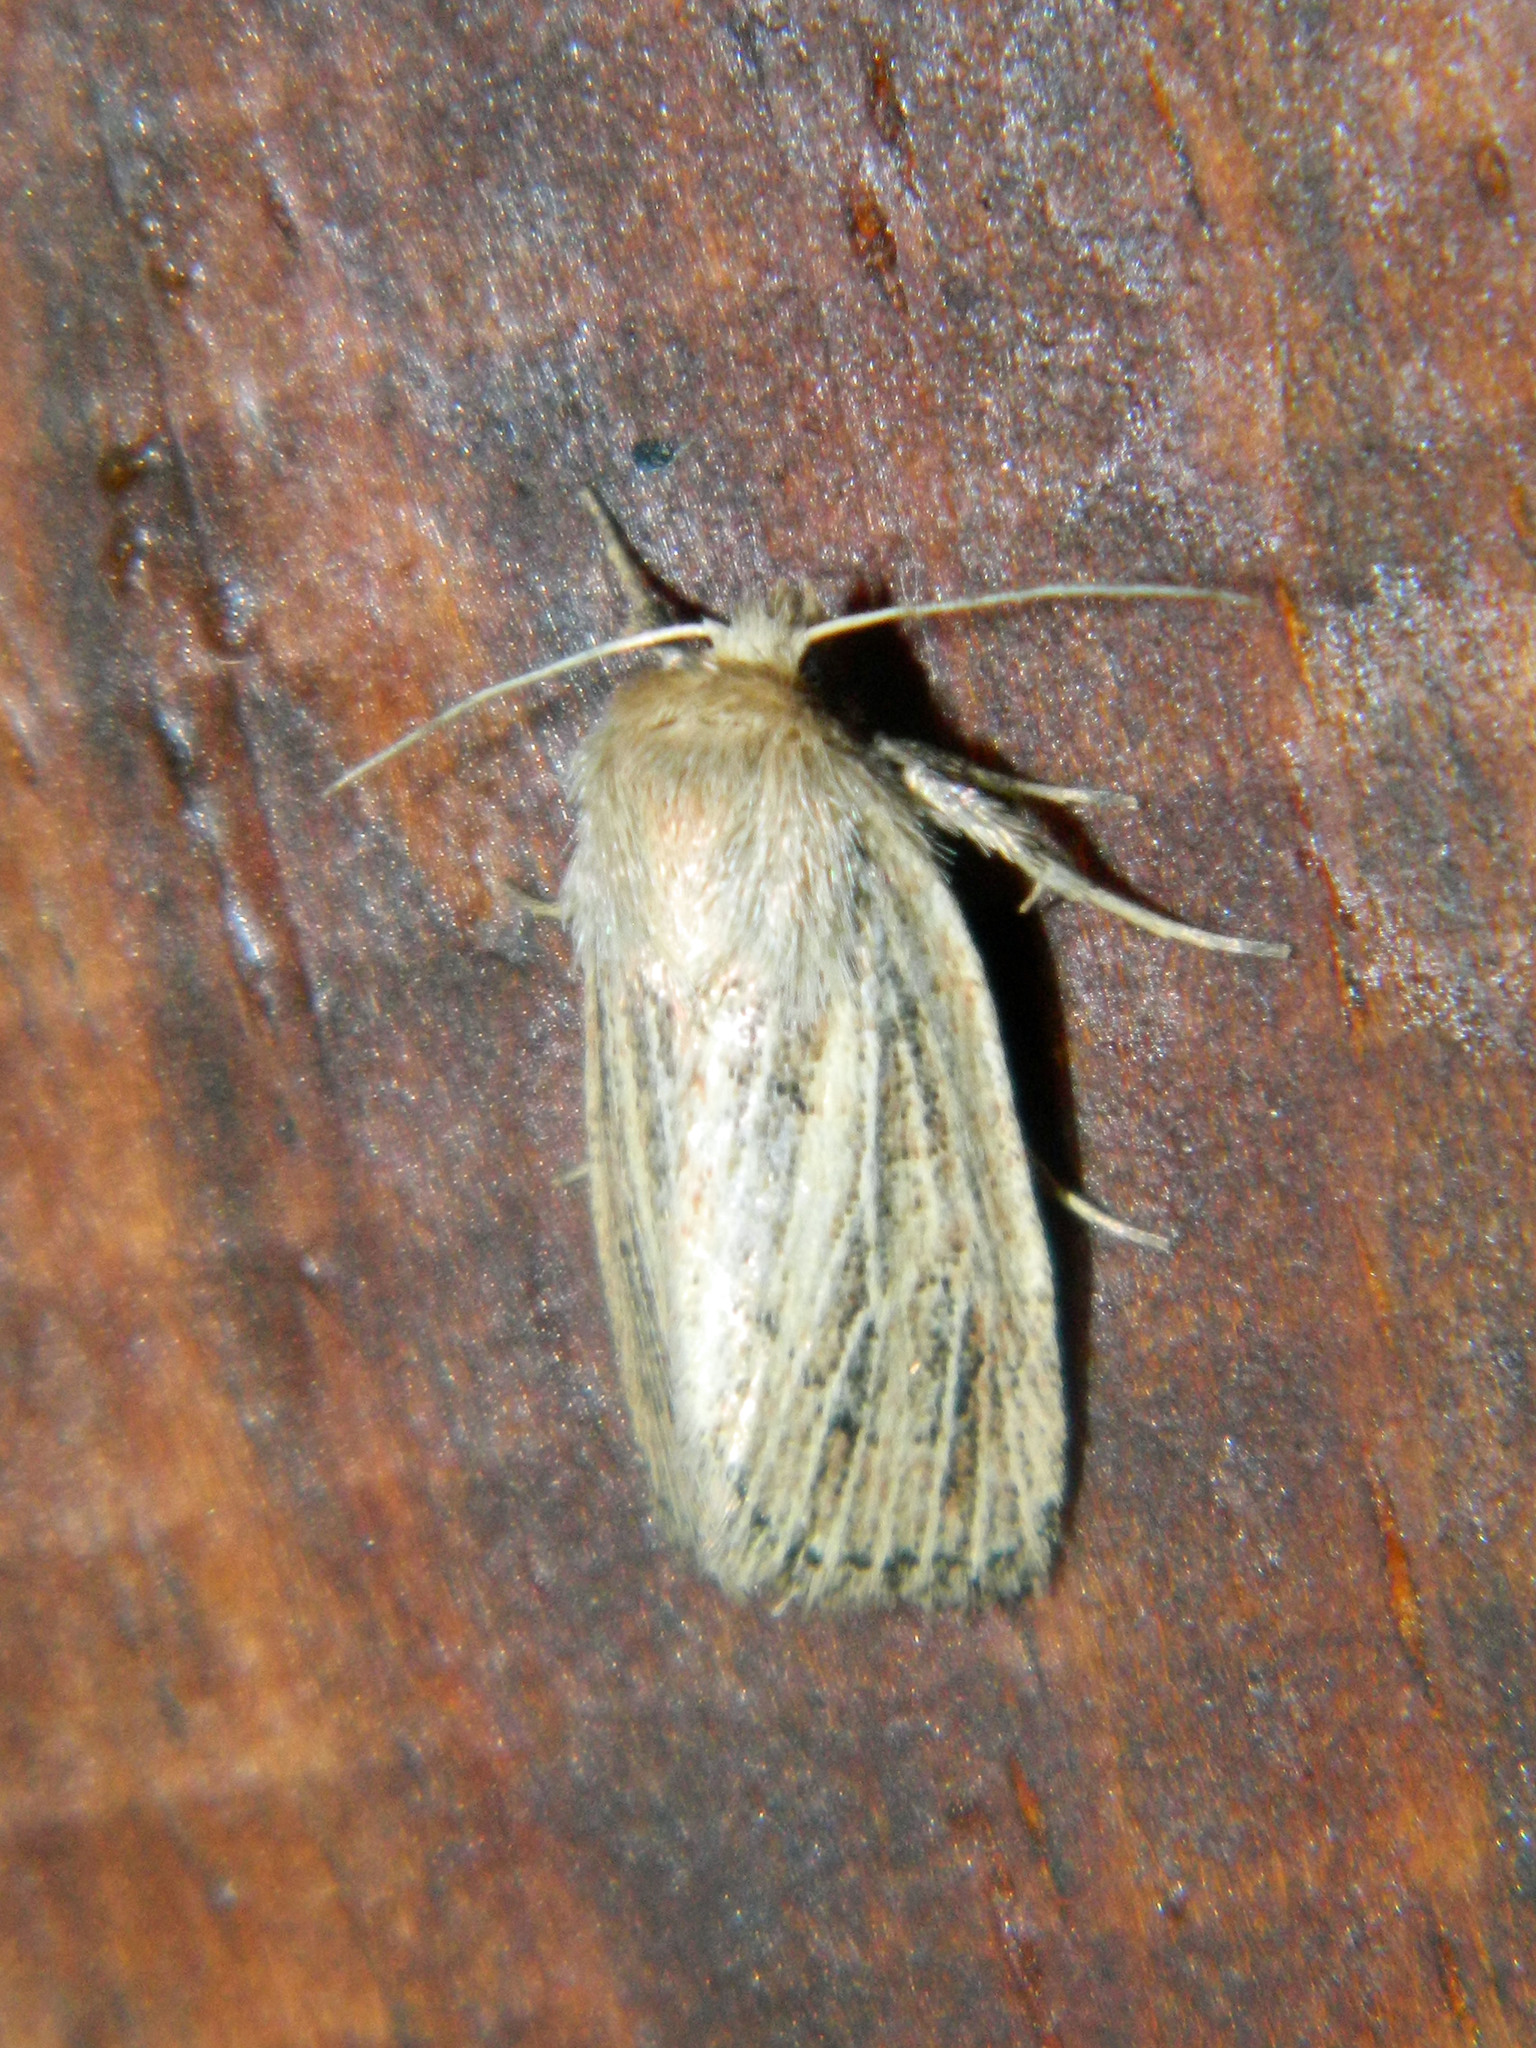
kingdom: Animalia
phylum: Arthropoda
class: Insecta
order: Lepidoptera
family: Noctuidae
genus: Hypocoena
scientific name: Hypocoena inquinata
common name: Tufted sedge moth
